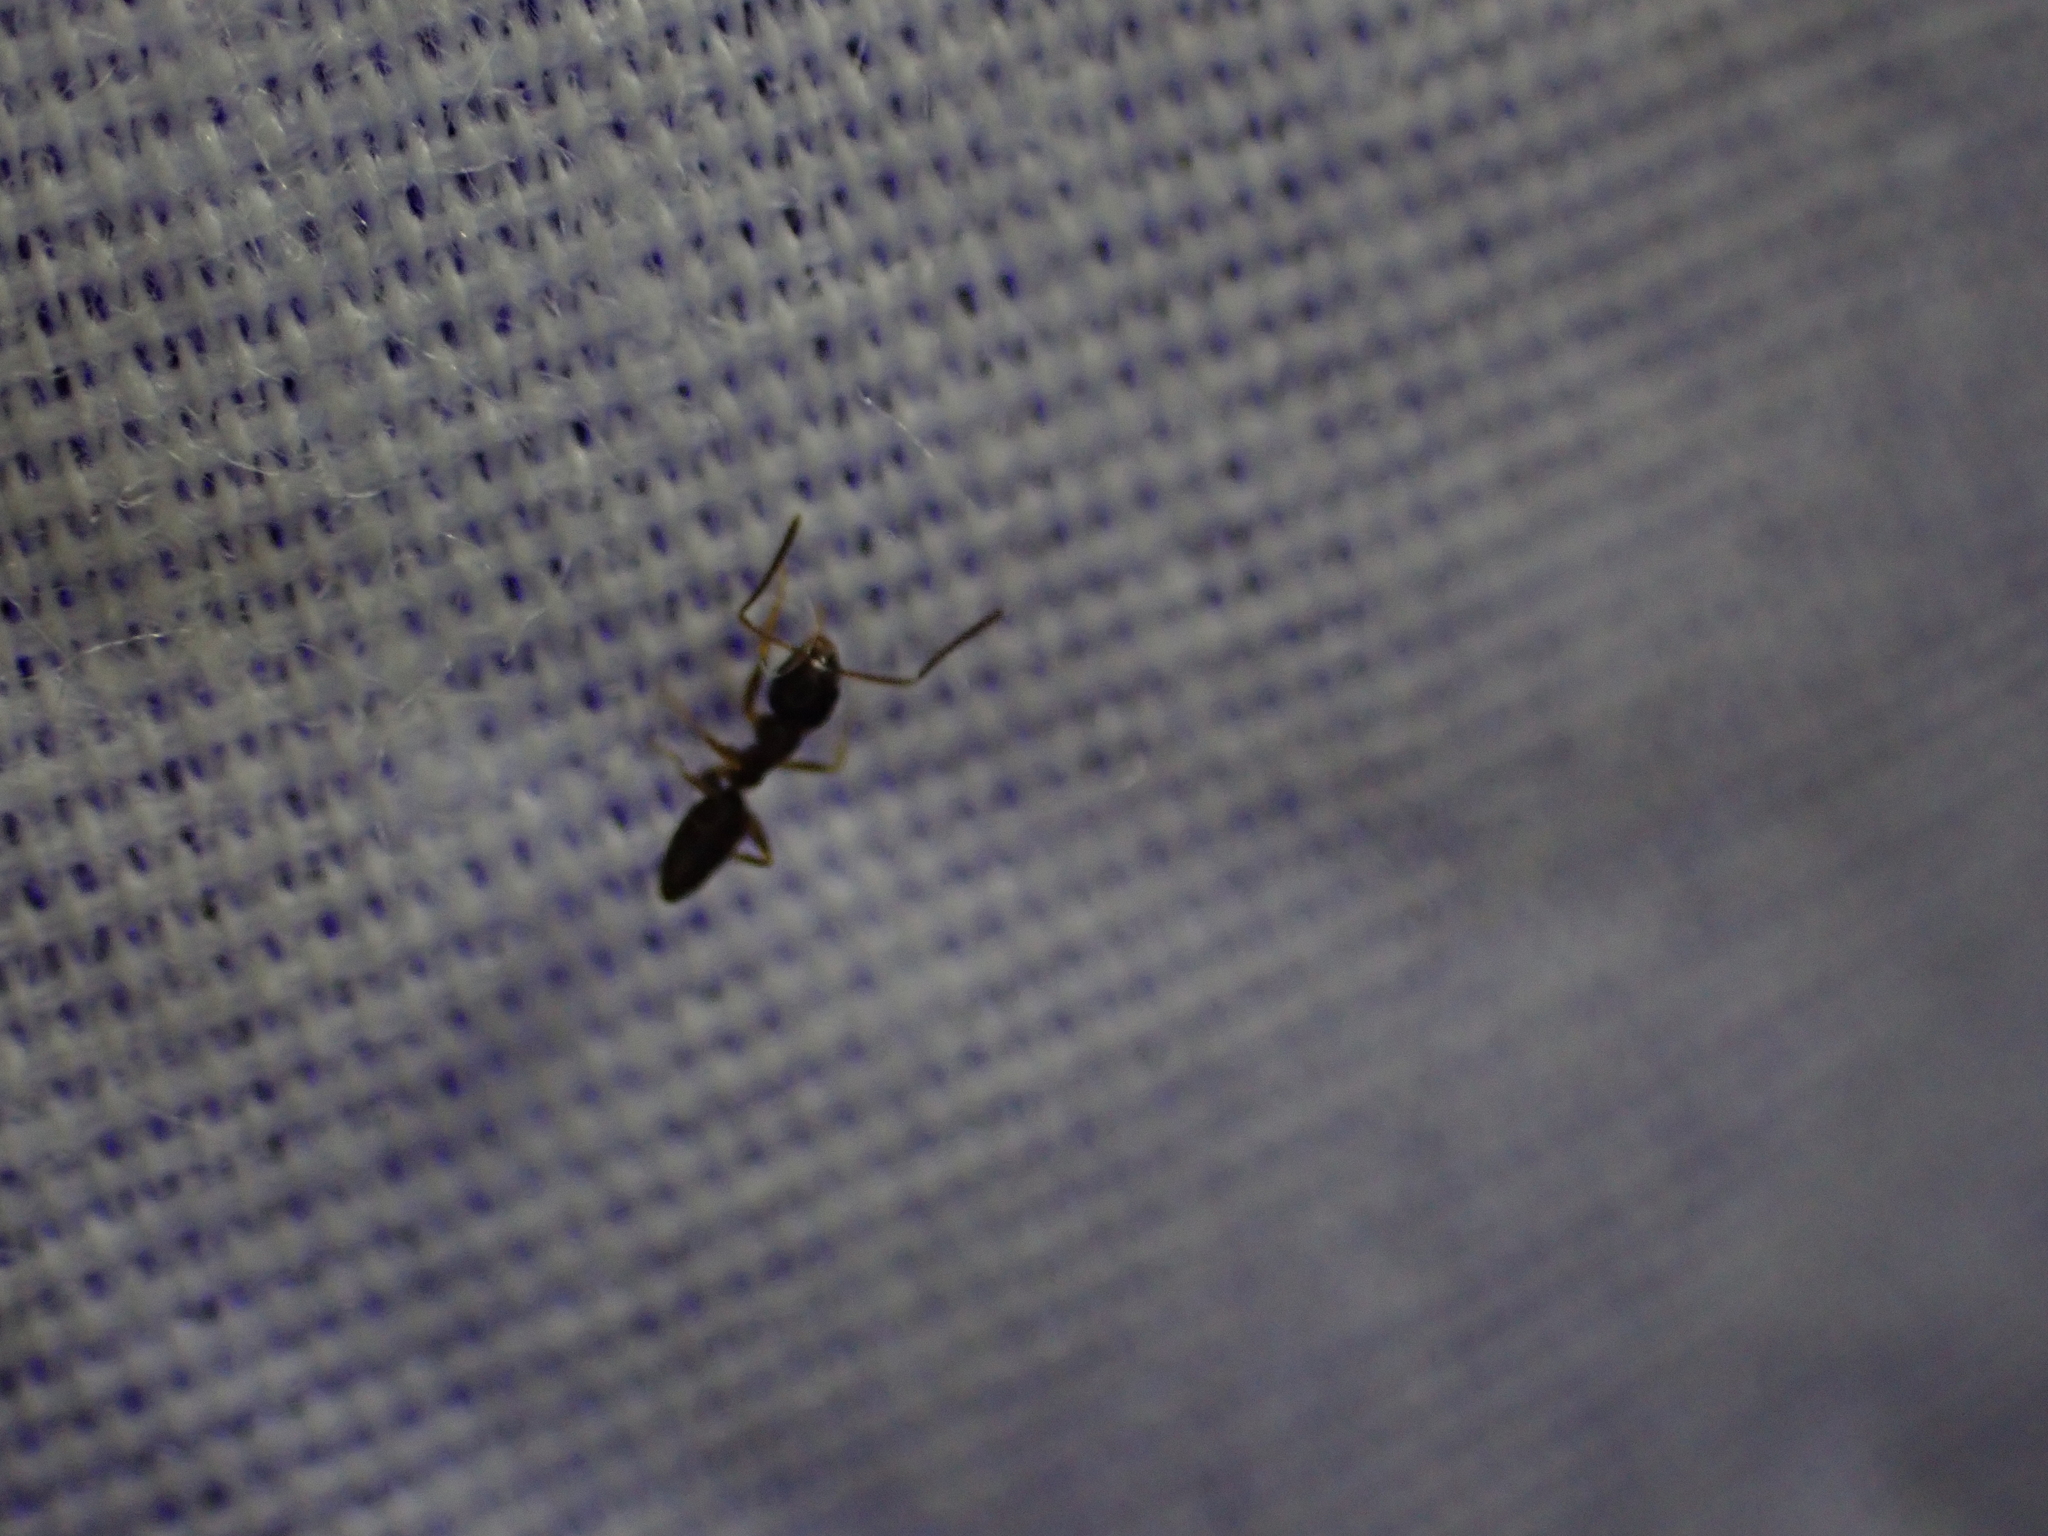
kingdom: Animalia
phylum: Arthropoda
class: Insecta
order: Hymenoptera
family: Formicidae
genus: Tapinoma
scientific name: Tapinoma sessile
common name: Odorous house ant
